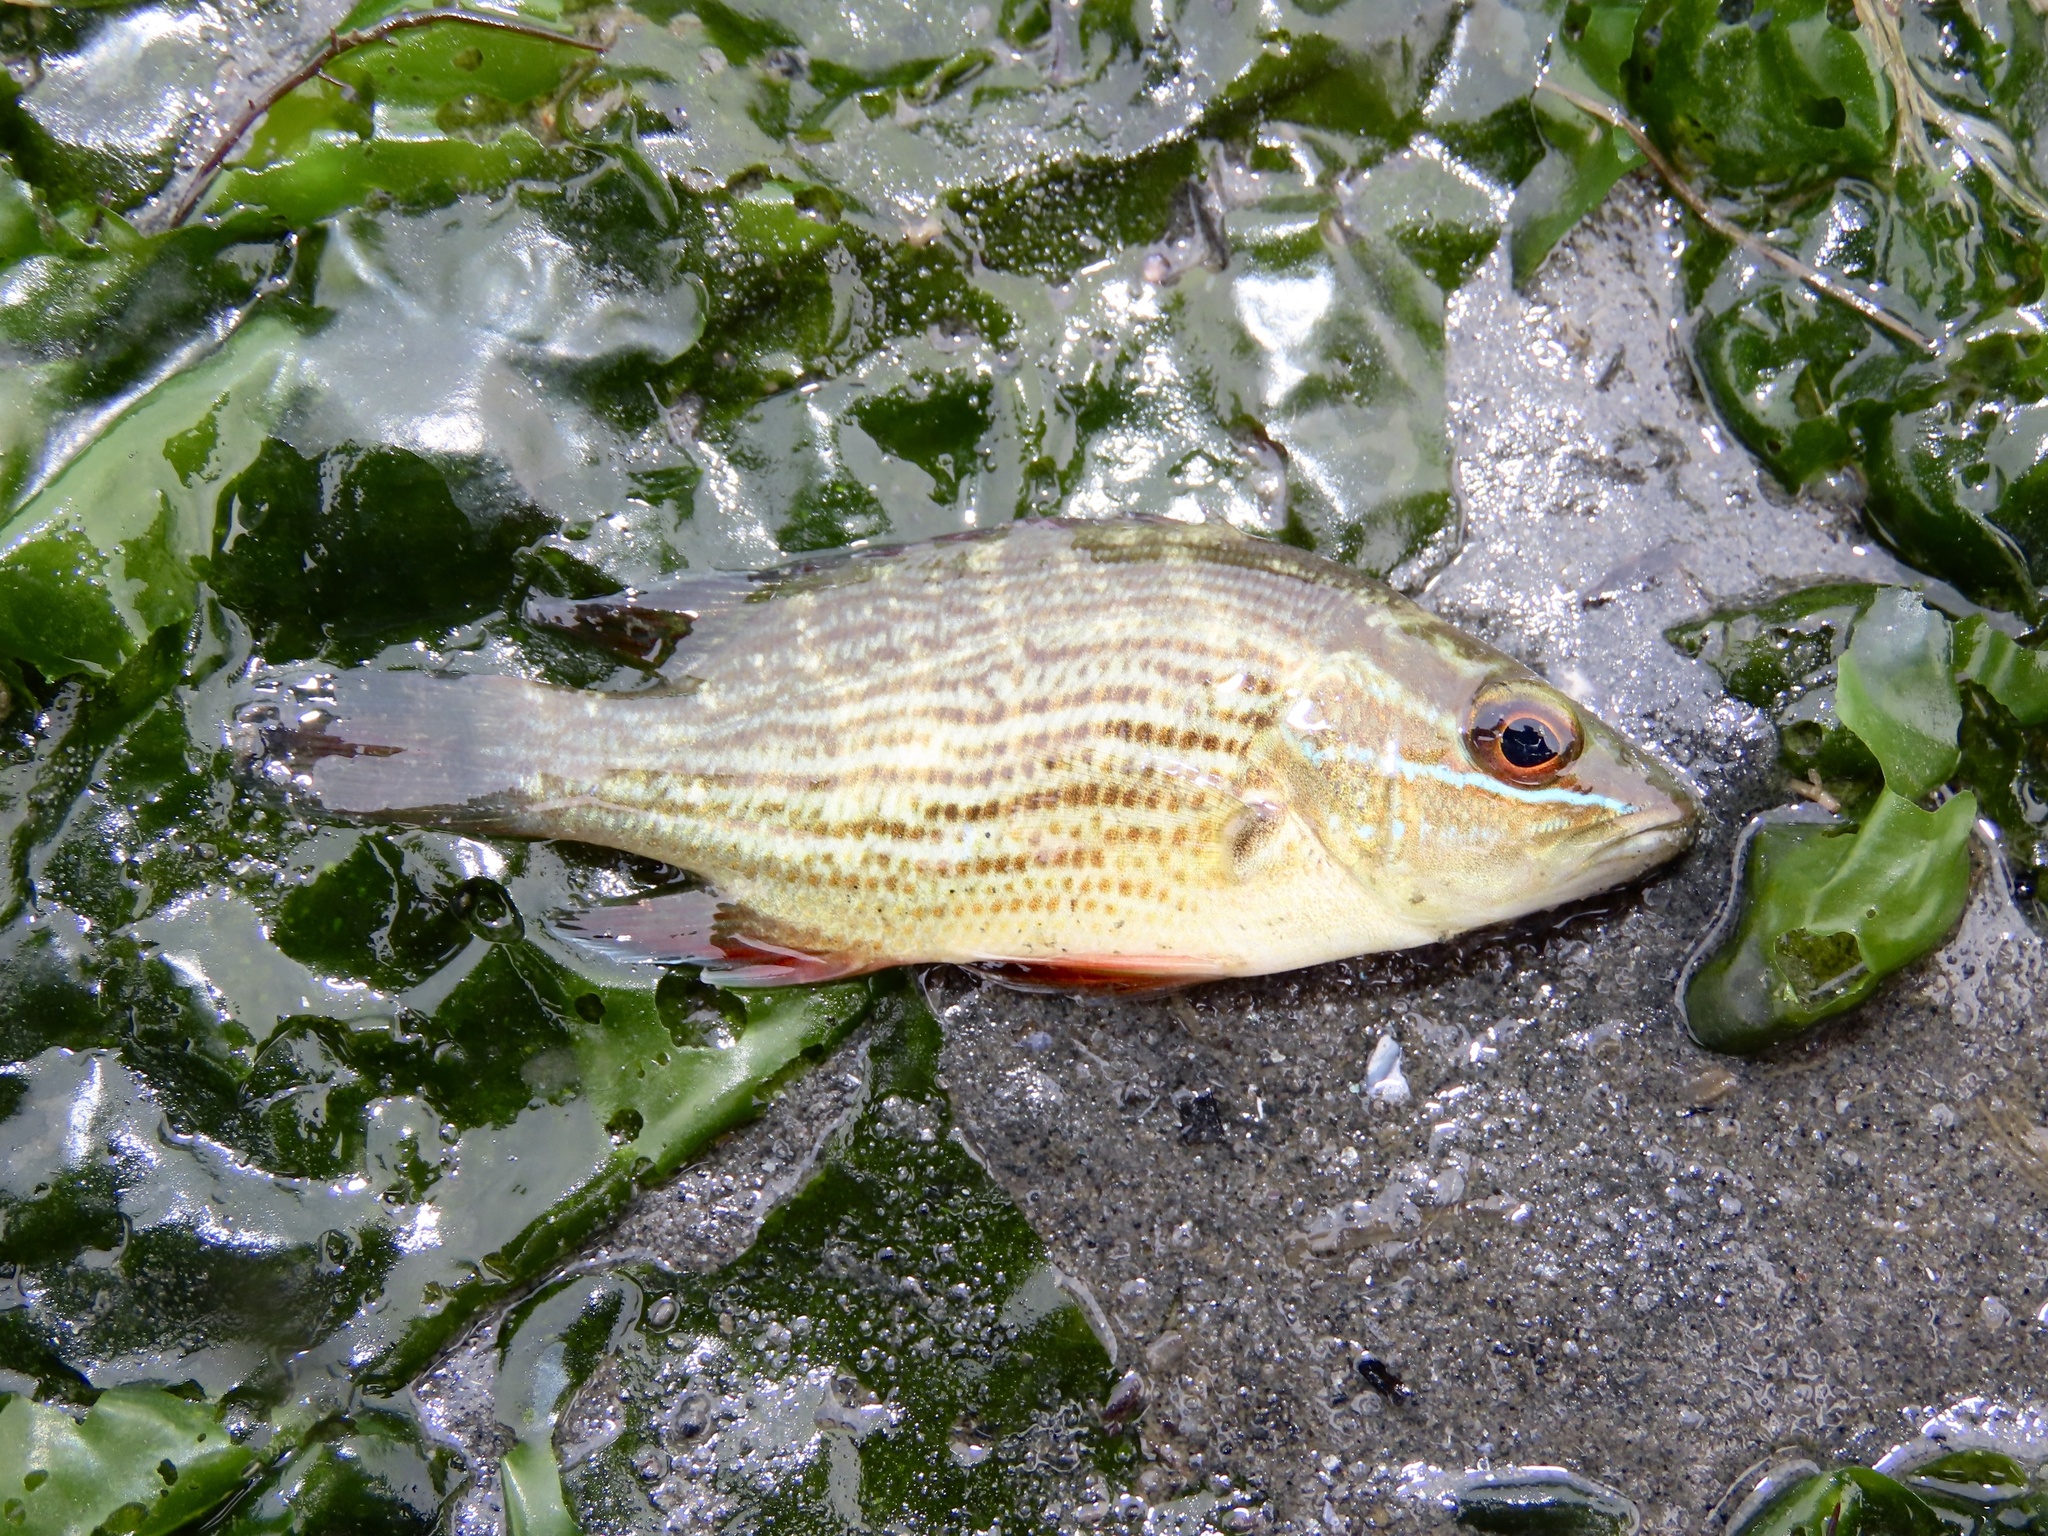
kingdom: Animalia
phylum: Chordata
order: Perciformes
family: Lutjanidae
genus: Lutjanus
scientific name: Lutjanus griseus
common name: Gray snapper
